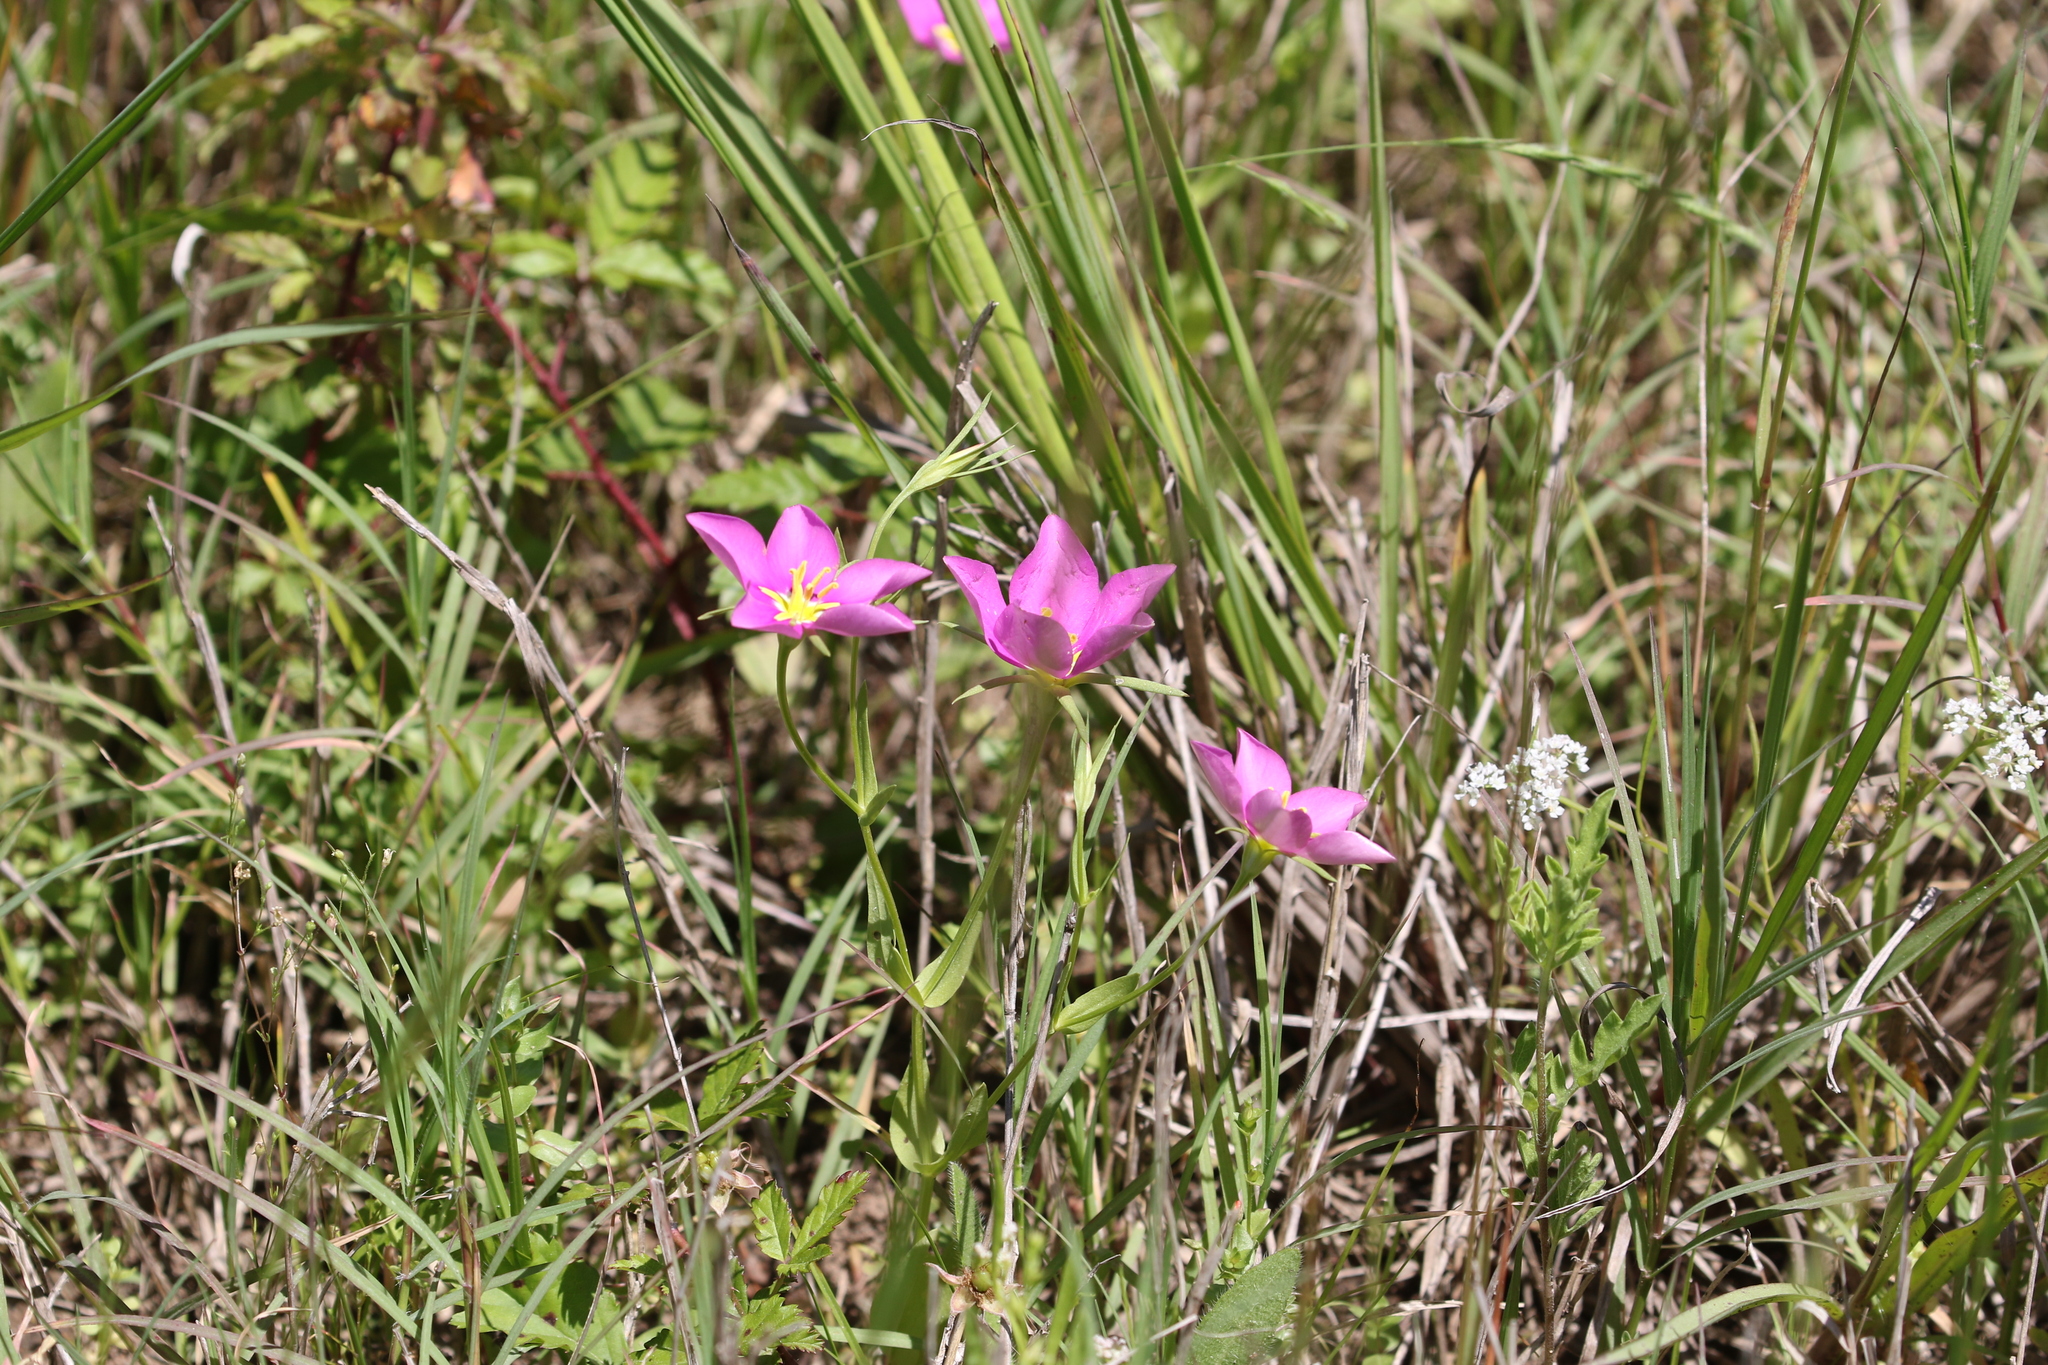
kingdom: Plantae
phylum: Tracheophyta
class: Magnoliopsida
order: Gentianales
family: Gentianaceae
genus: Sabatia
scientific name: Sabatia campestris
